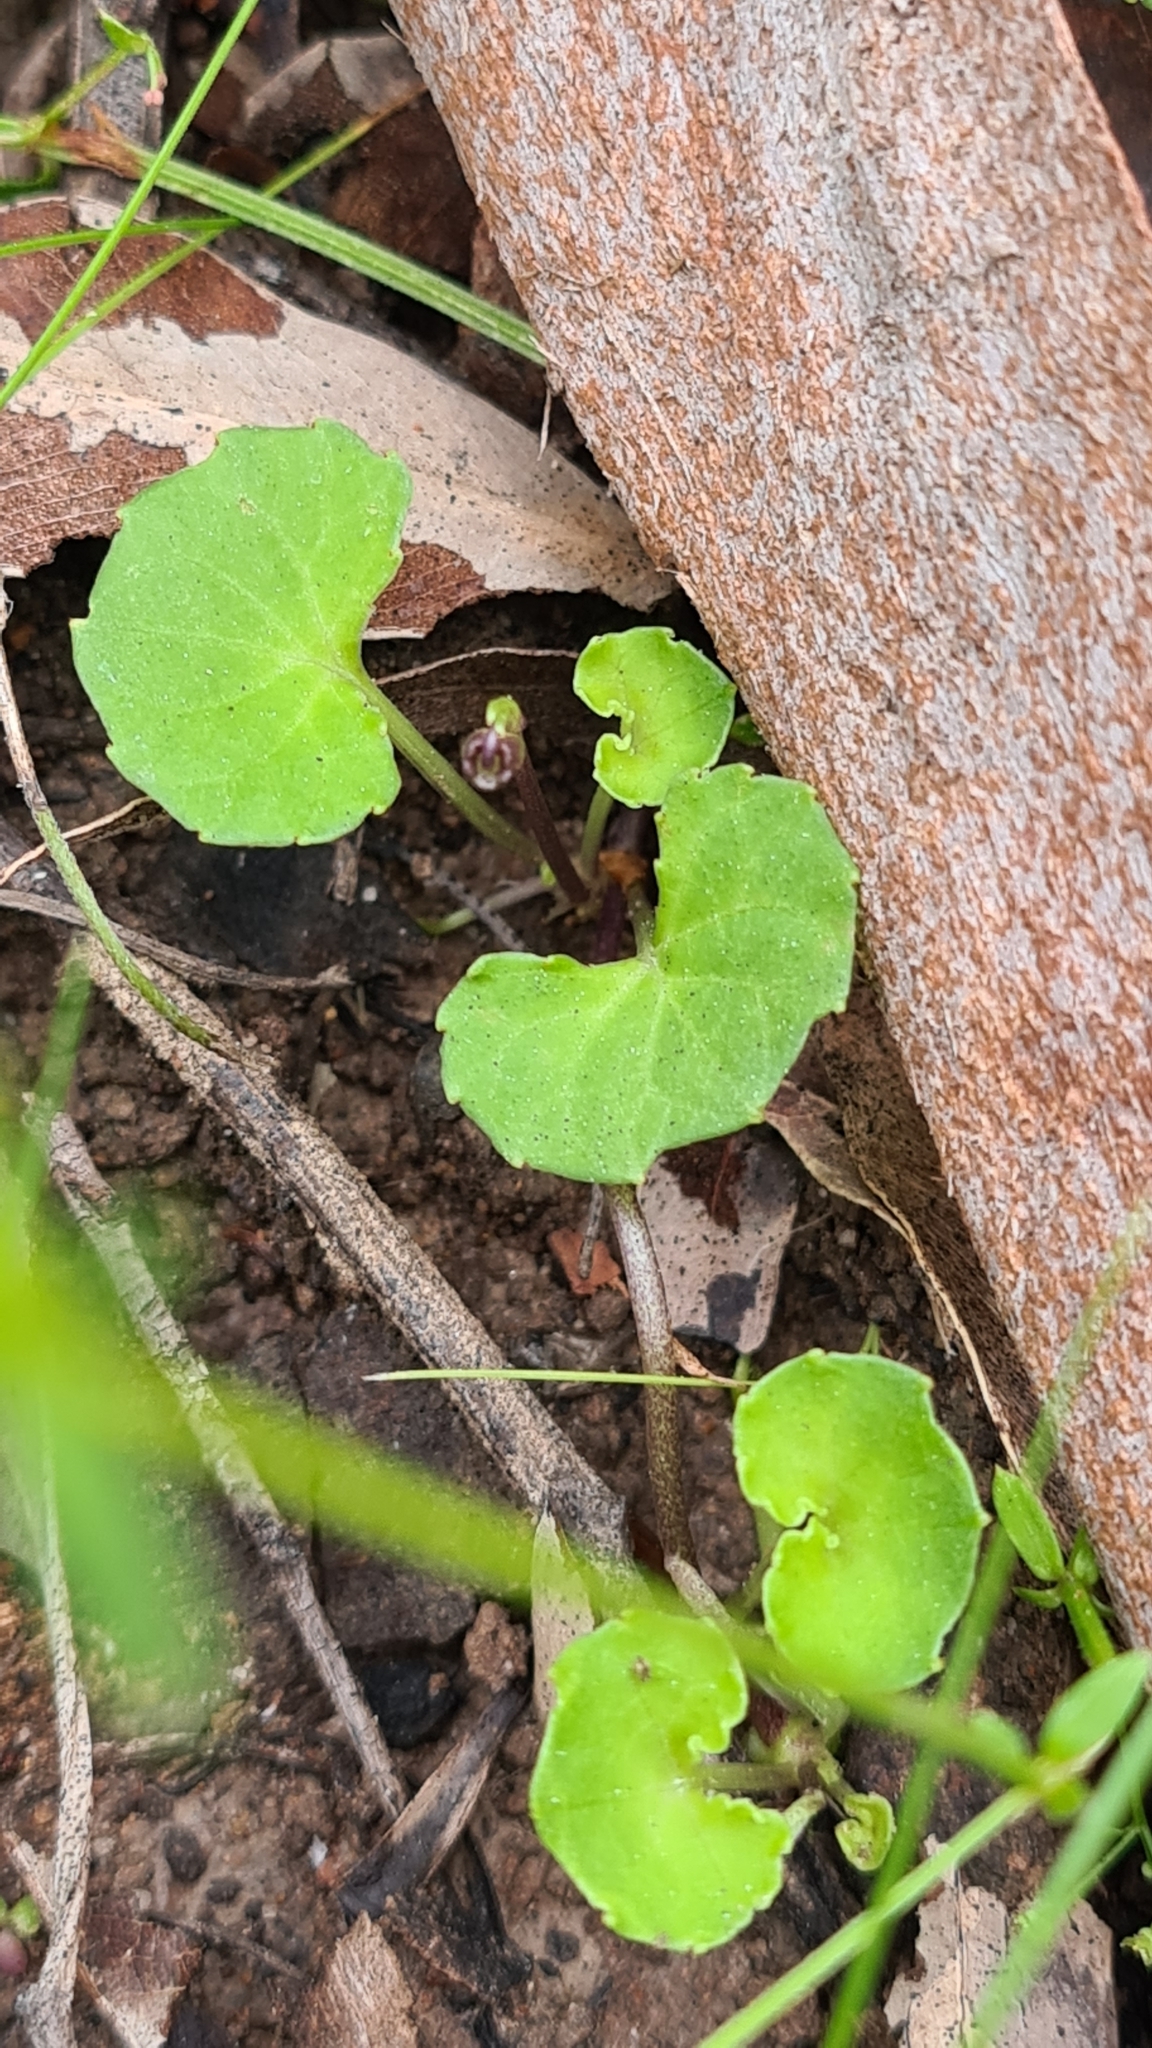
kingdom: Plantae
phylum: Tracheophyta
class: Magnoliopsida
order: Malpighiales
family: Violaceae
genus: Viola
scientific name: Viola hederacea
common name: Australian violet
